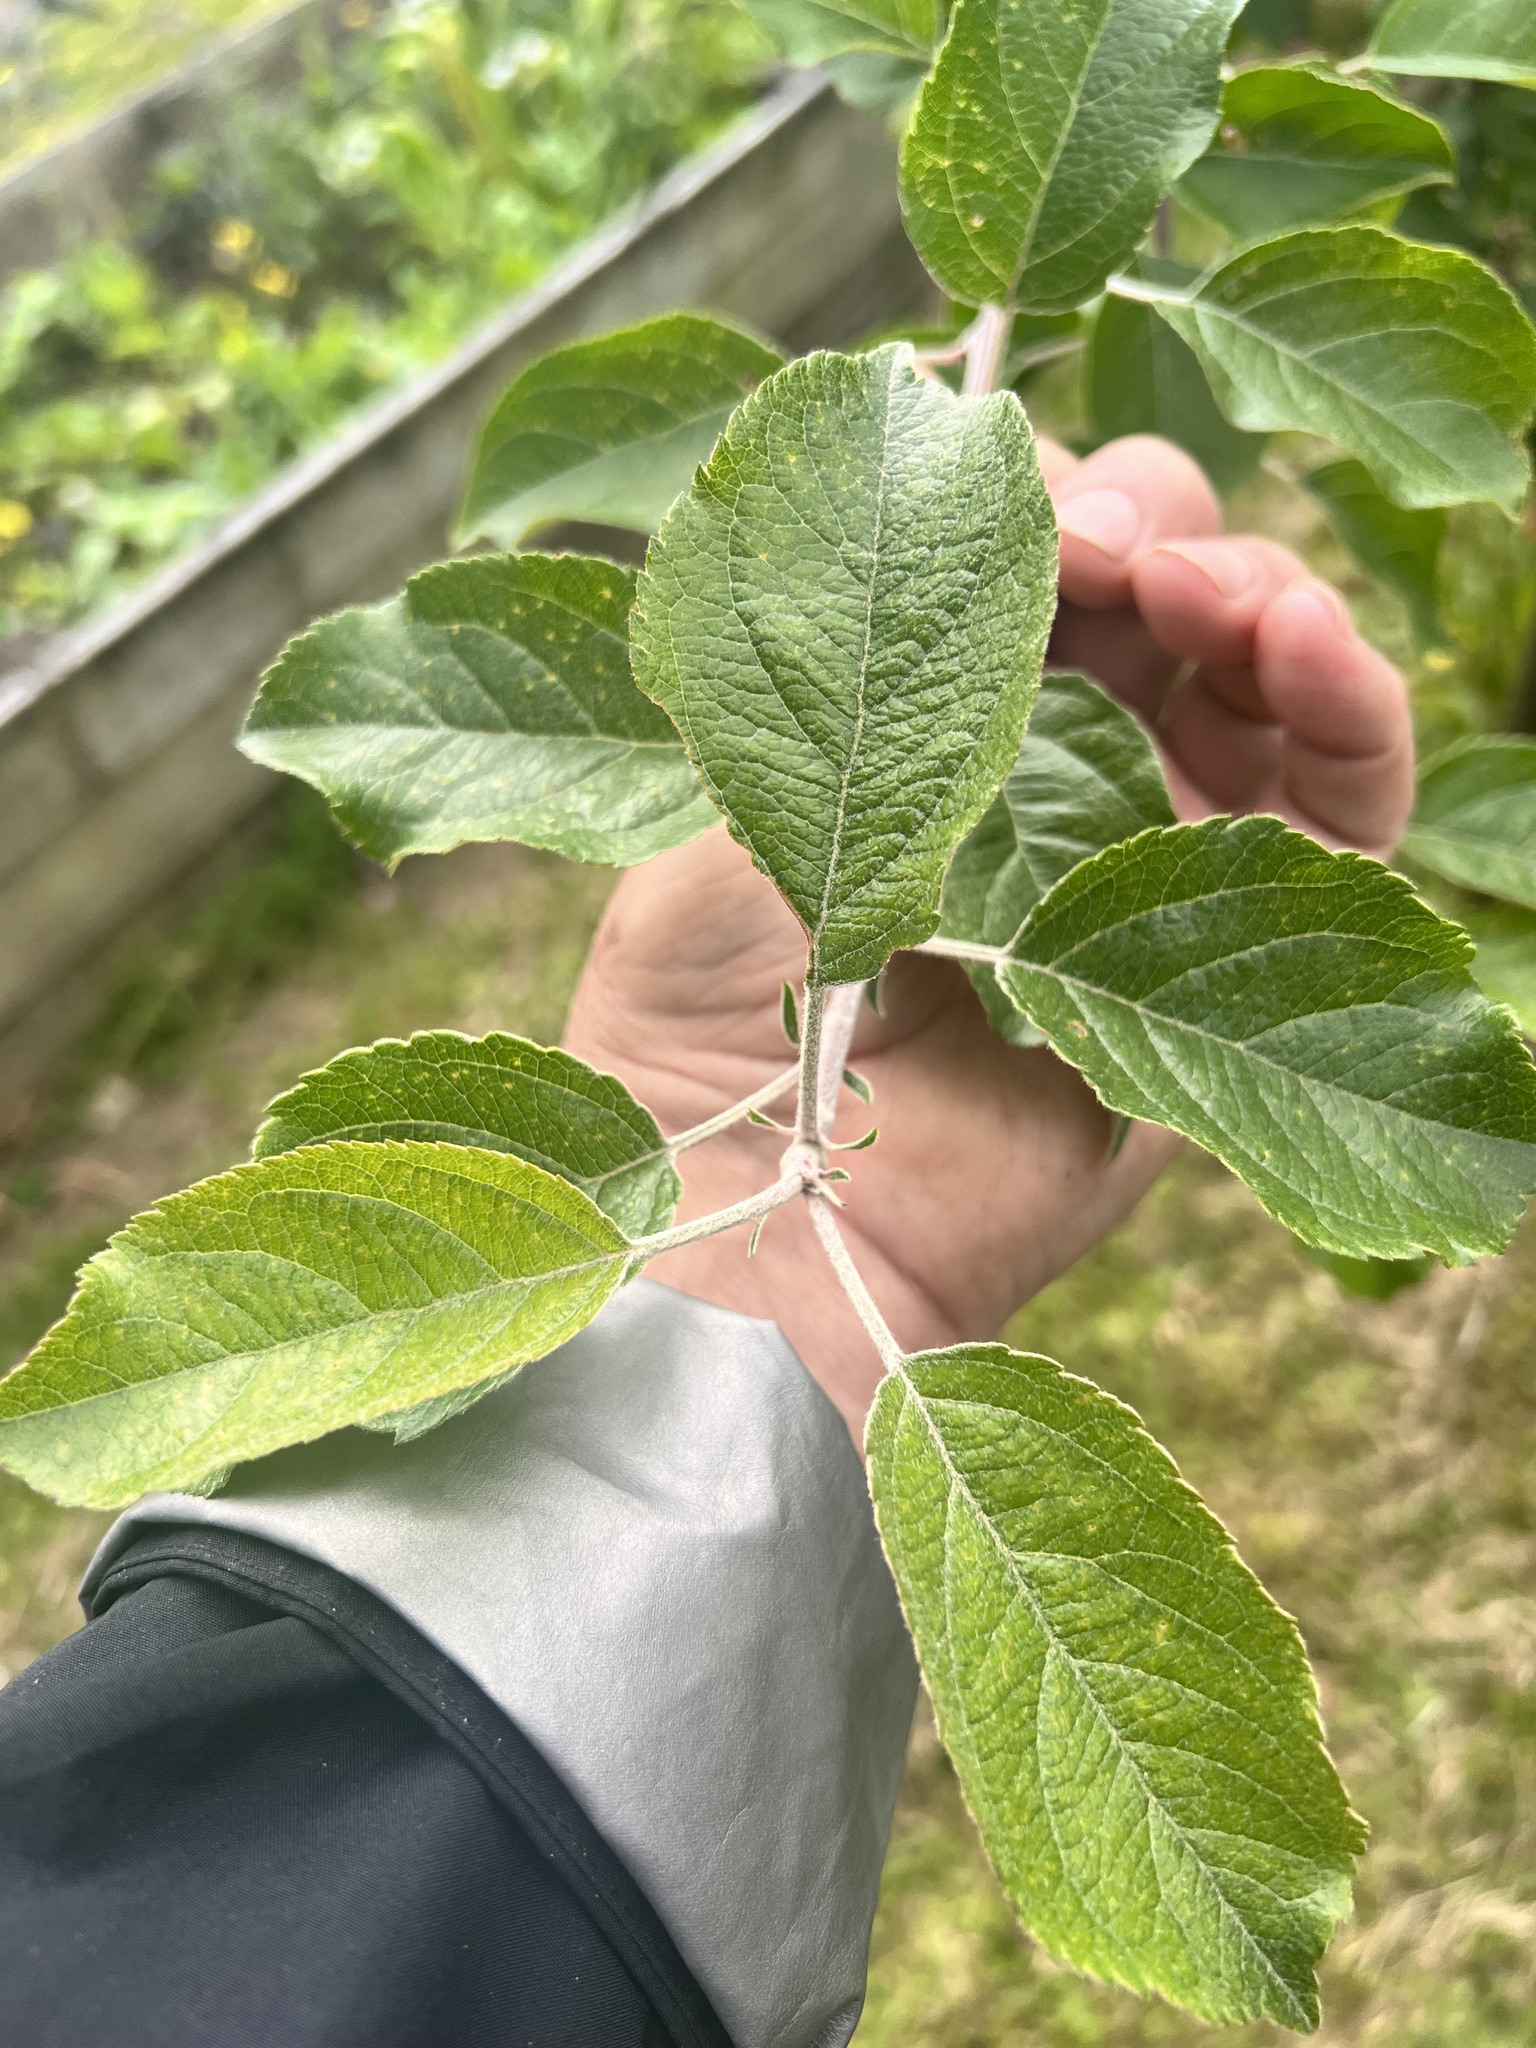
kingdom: Plantae
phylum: Tracheophyta
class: Magnoliopsida
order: Rosales
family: Rosaceae
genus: Malus
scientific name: Malus domestica
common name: Apple
